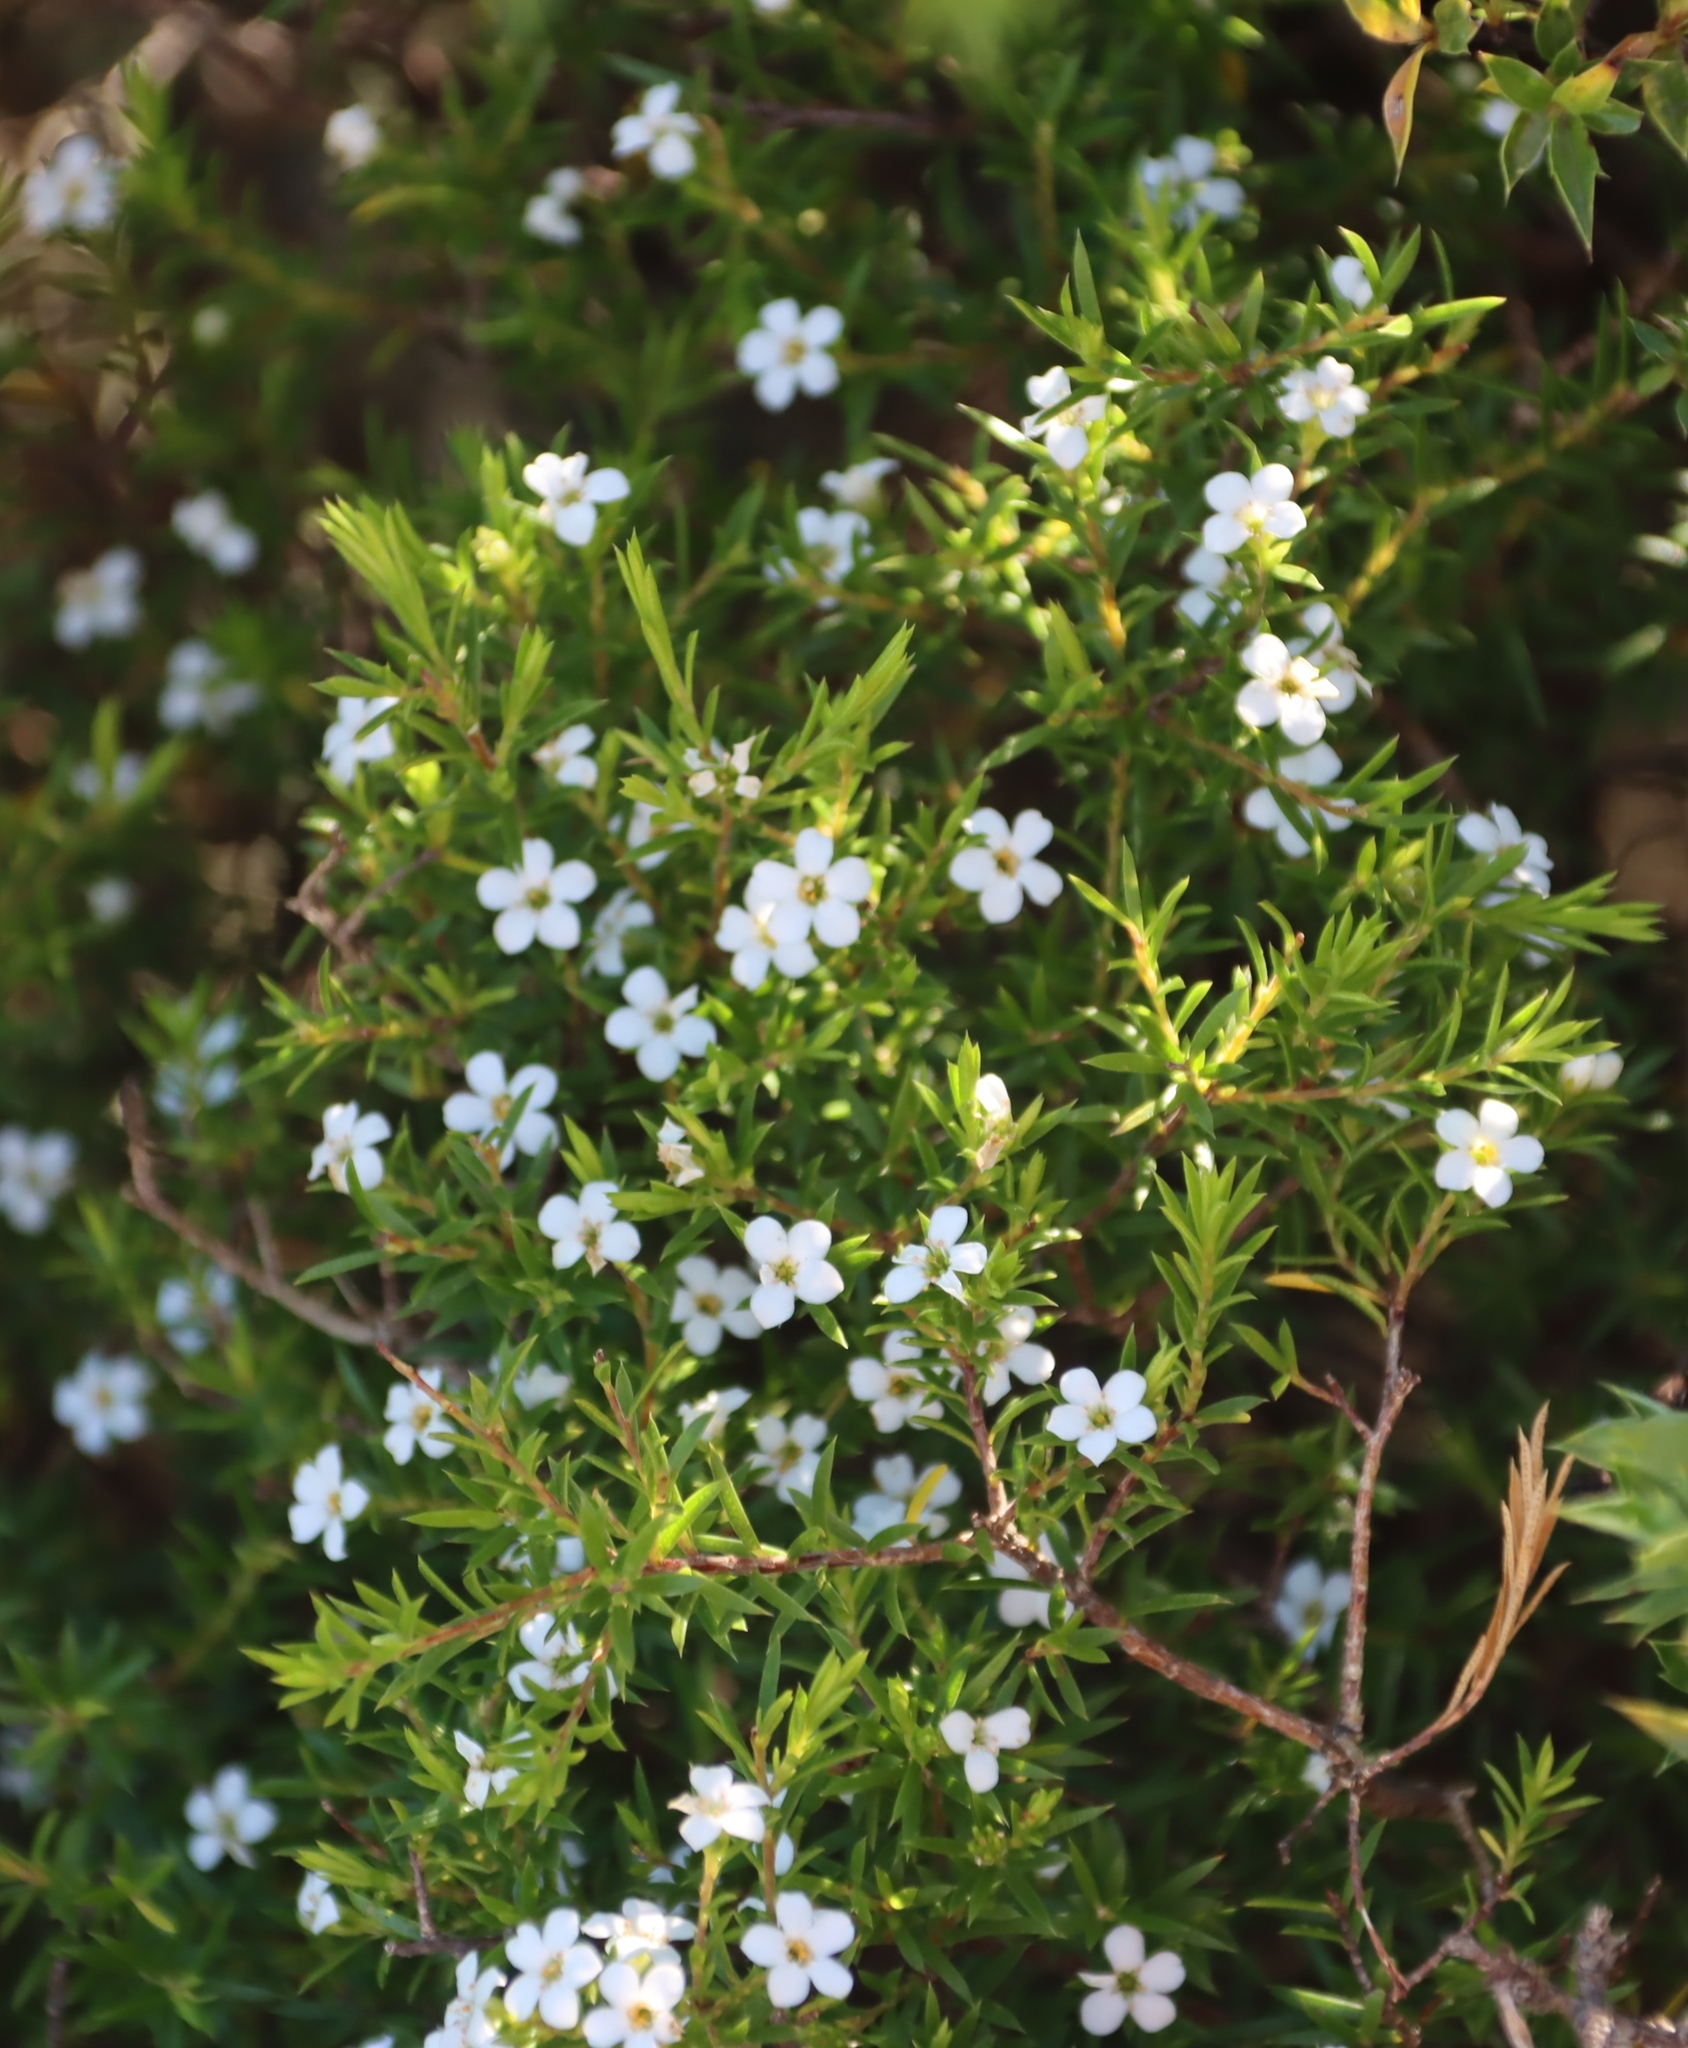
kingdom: Plantae
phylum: Tracheophyta
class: Magnoliopsida
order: Sapindales
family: Rutaceae
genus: Coleonema
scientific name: Coleonema album
